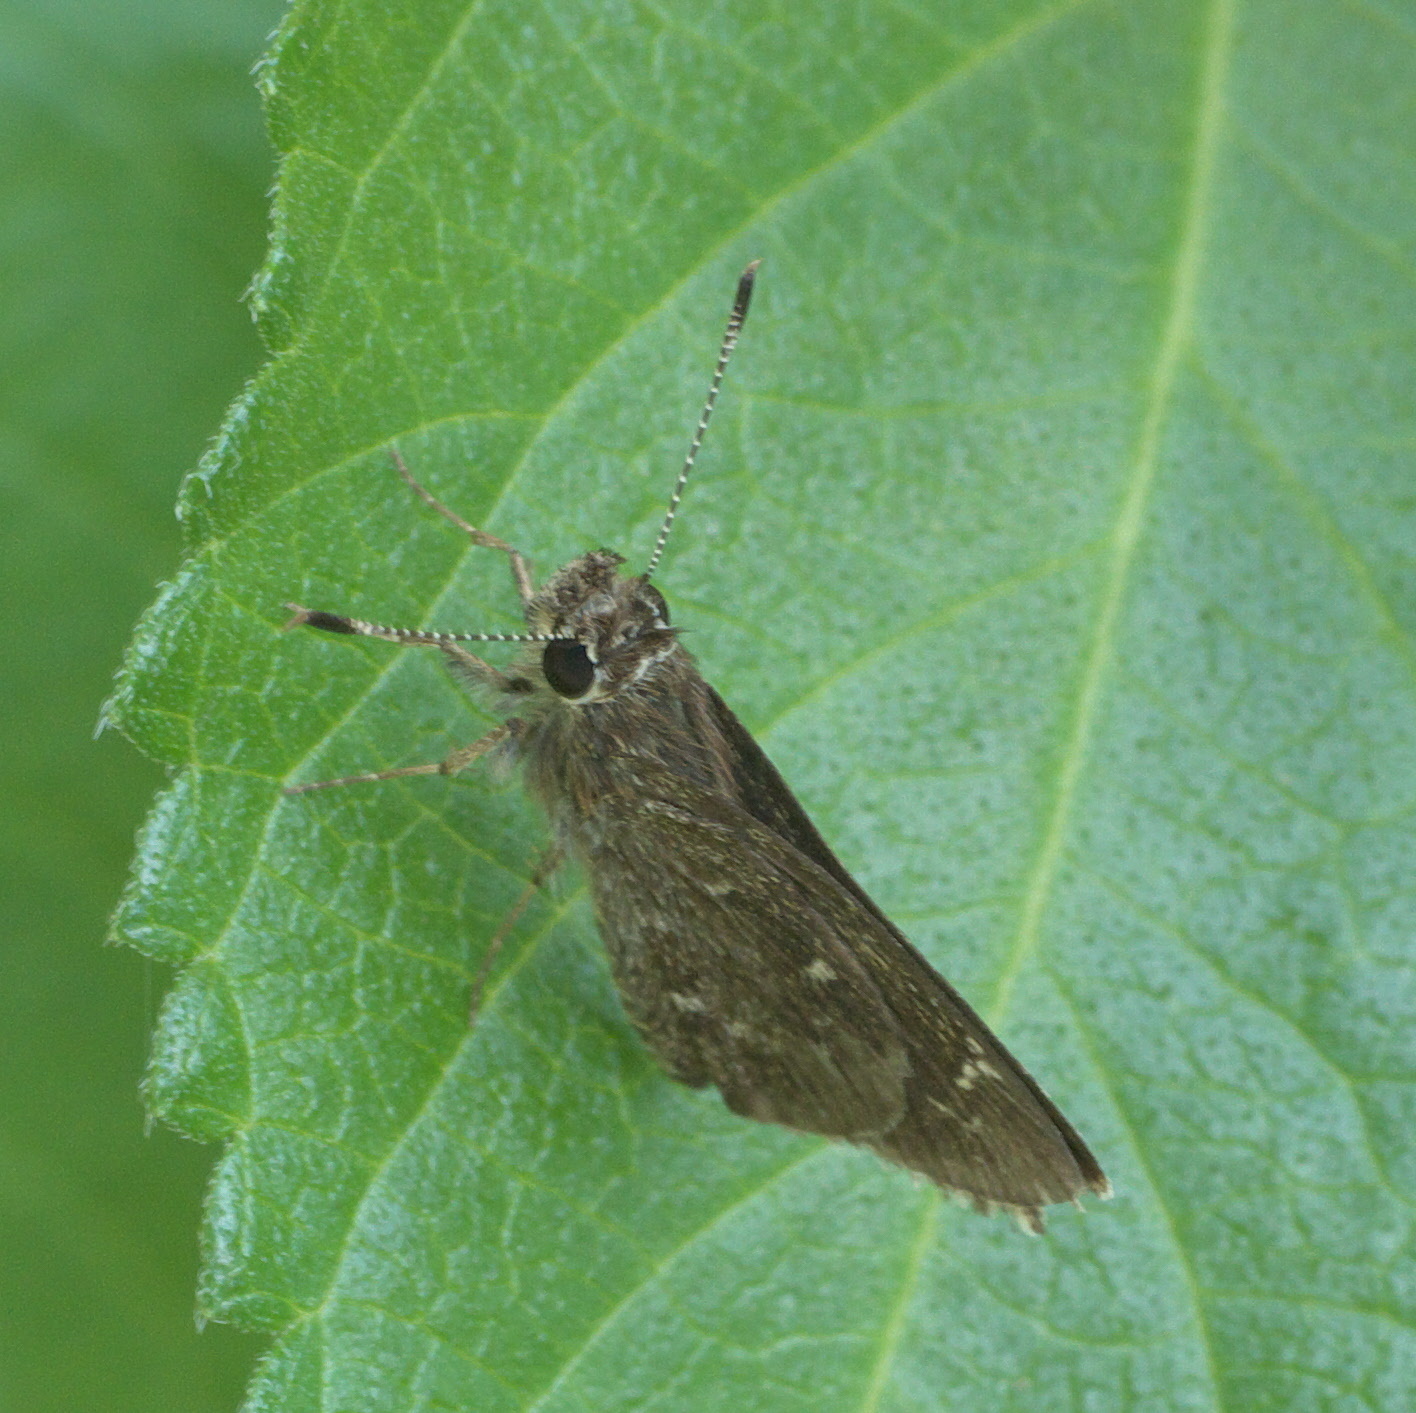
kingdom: Animalia
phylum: Arthropoda
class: Insecta
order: Lepidoptera
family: Hesperiidae
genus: Mastor
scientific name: Mastor celia
